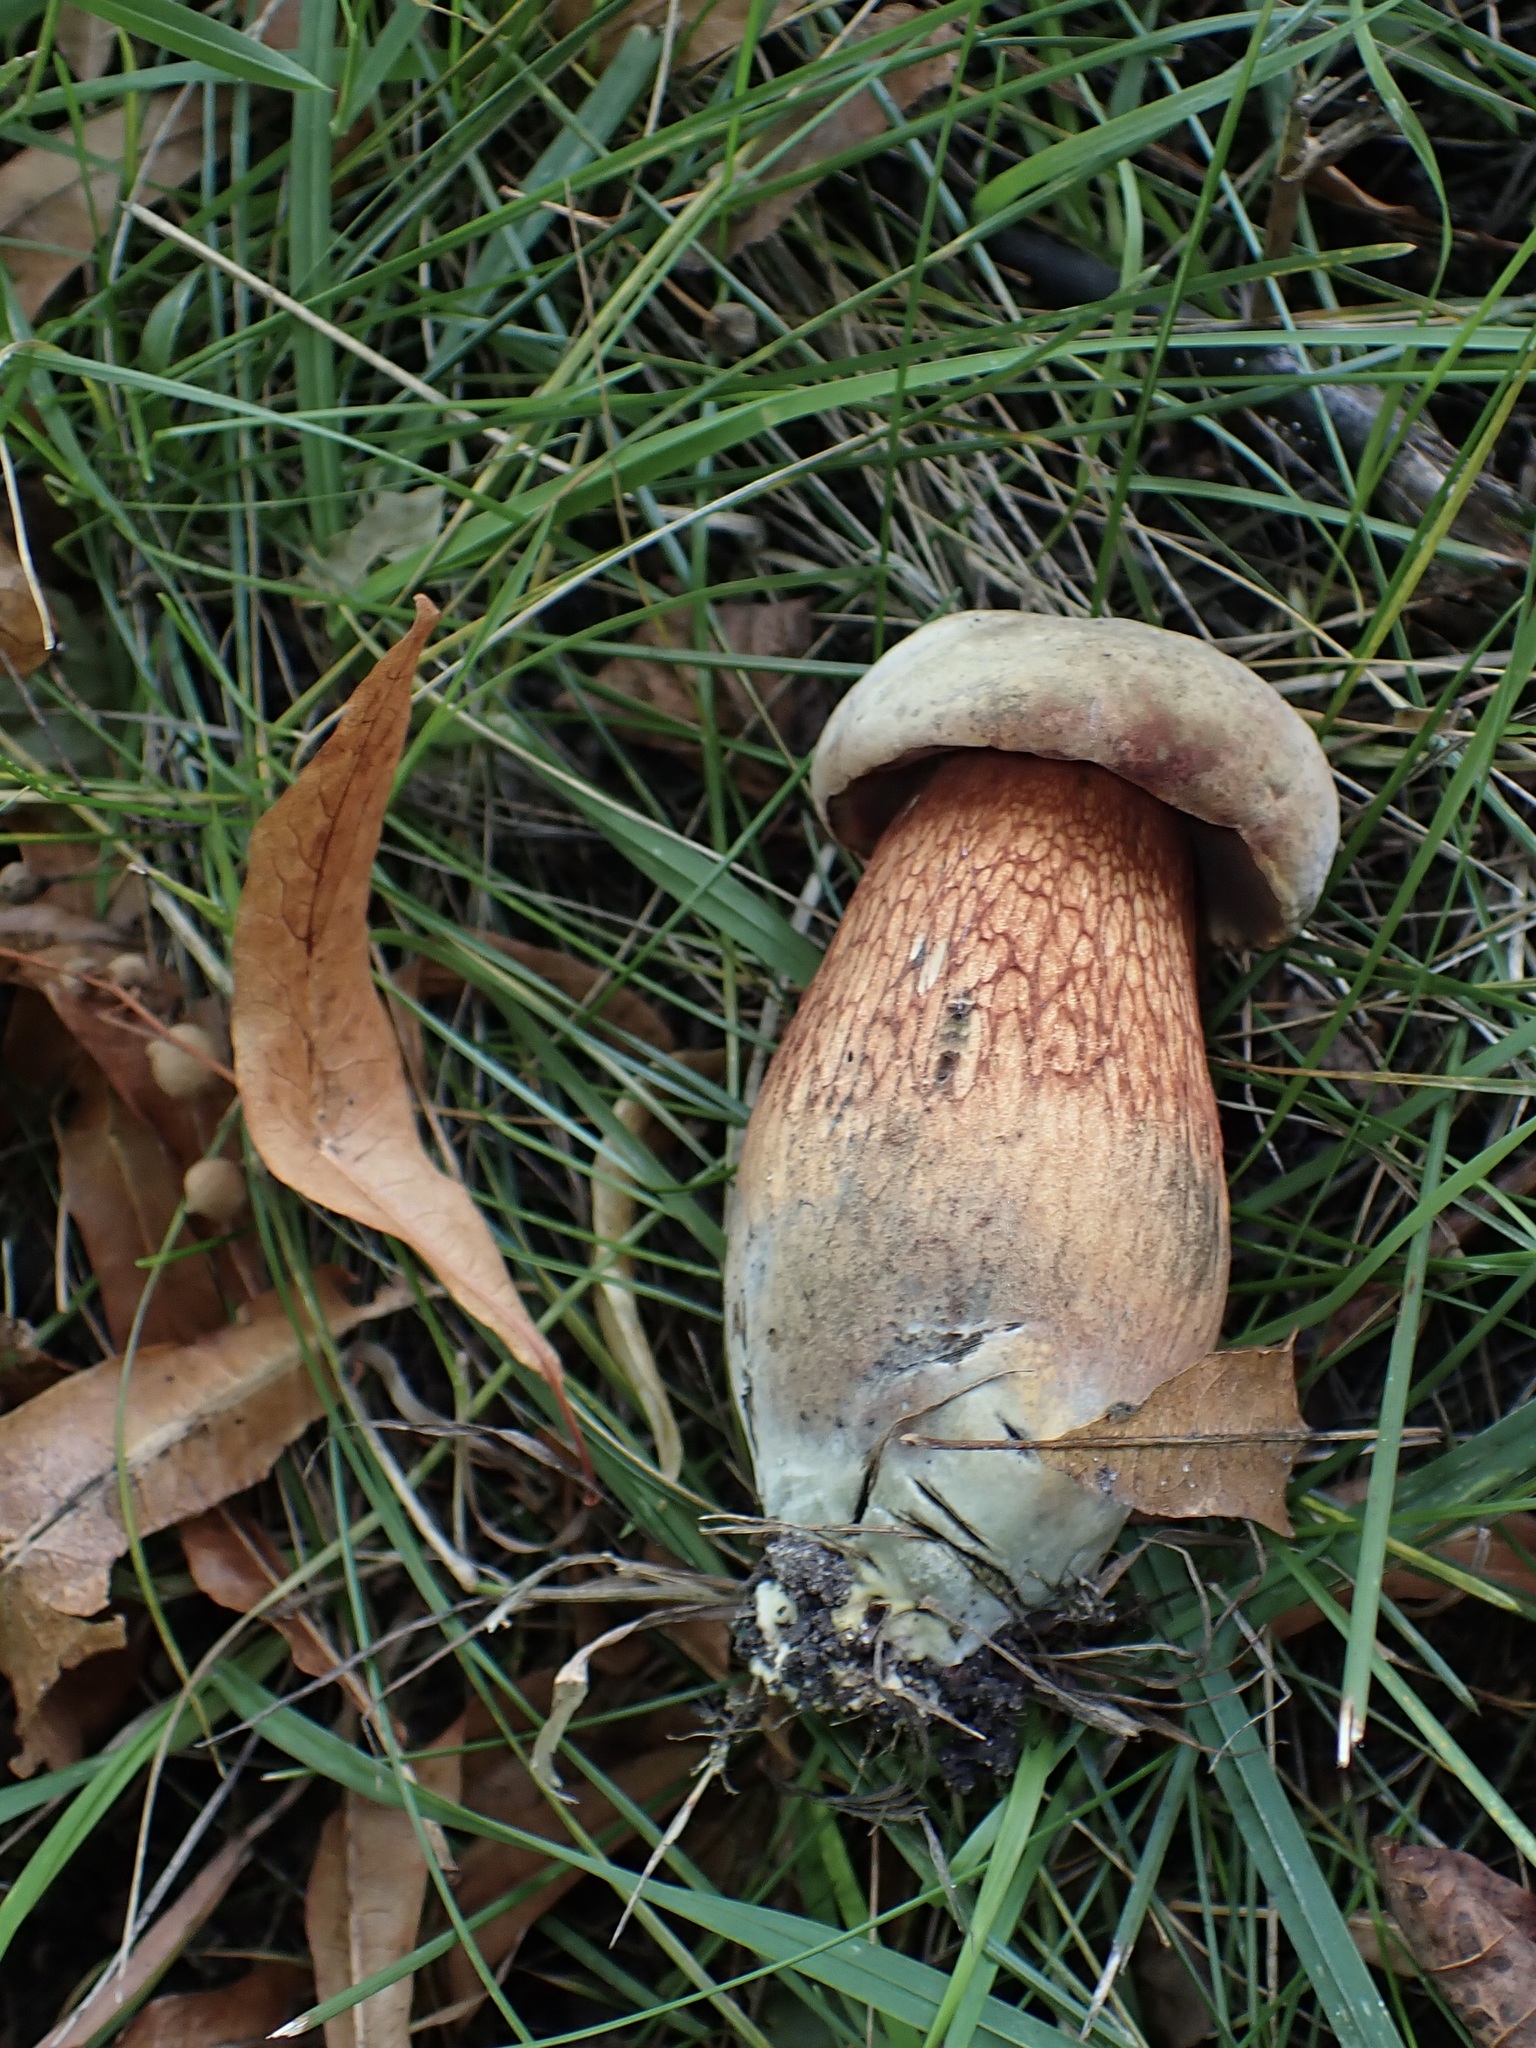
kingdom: Fungi
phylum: Basidiomycota
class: Agaricomycetes
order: Boletales
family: Boletaceae
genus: Suillellus
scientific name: Suillellus luridus
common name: Lurid bolete
